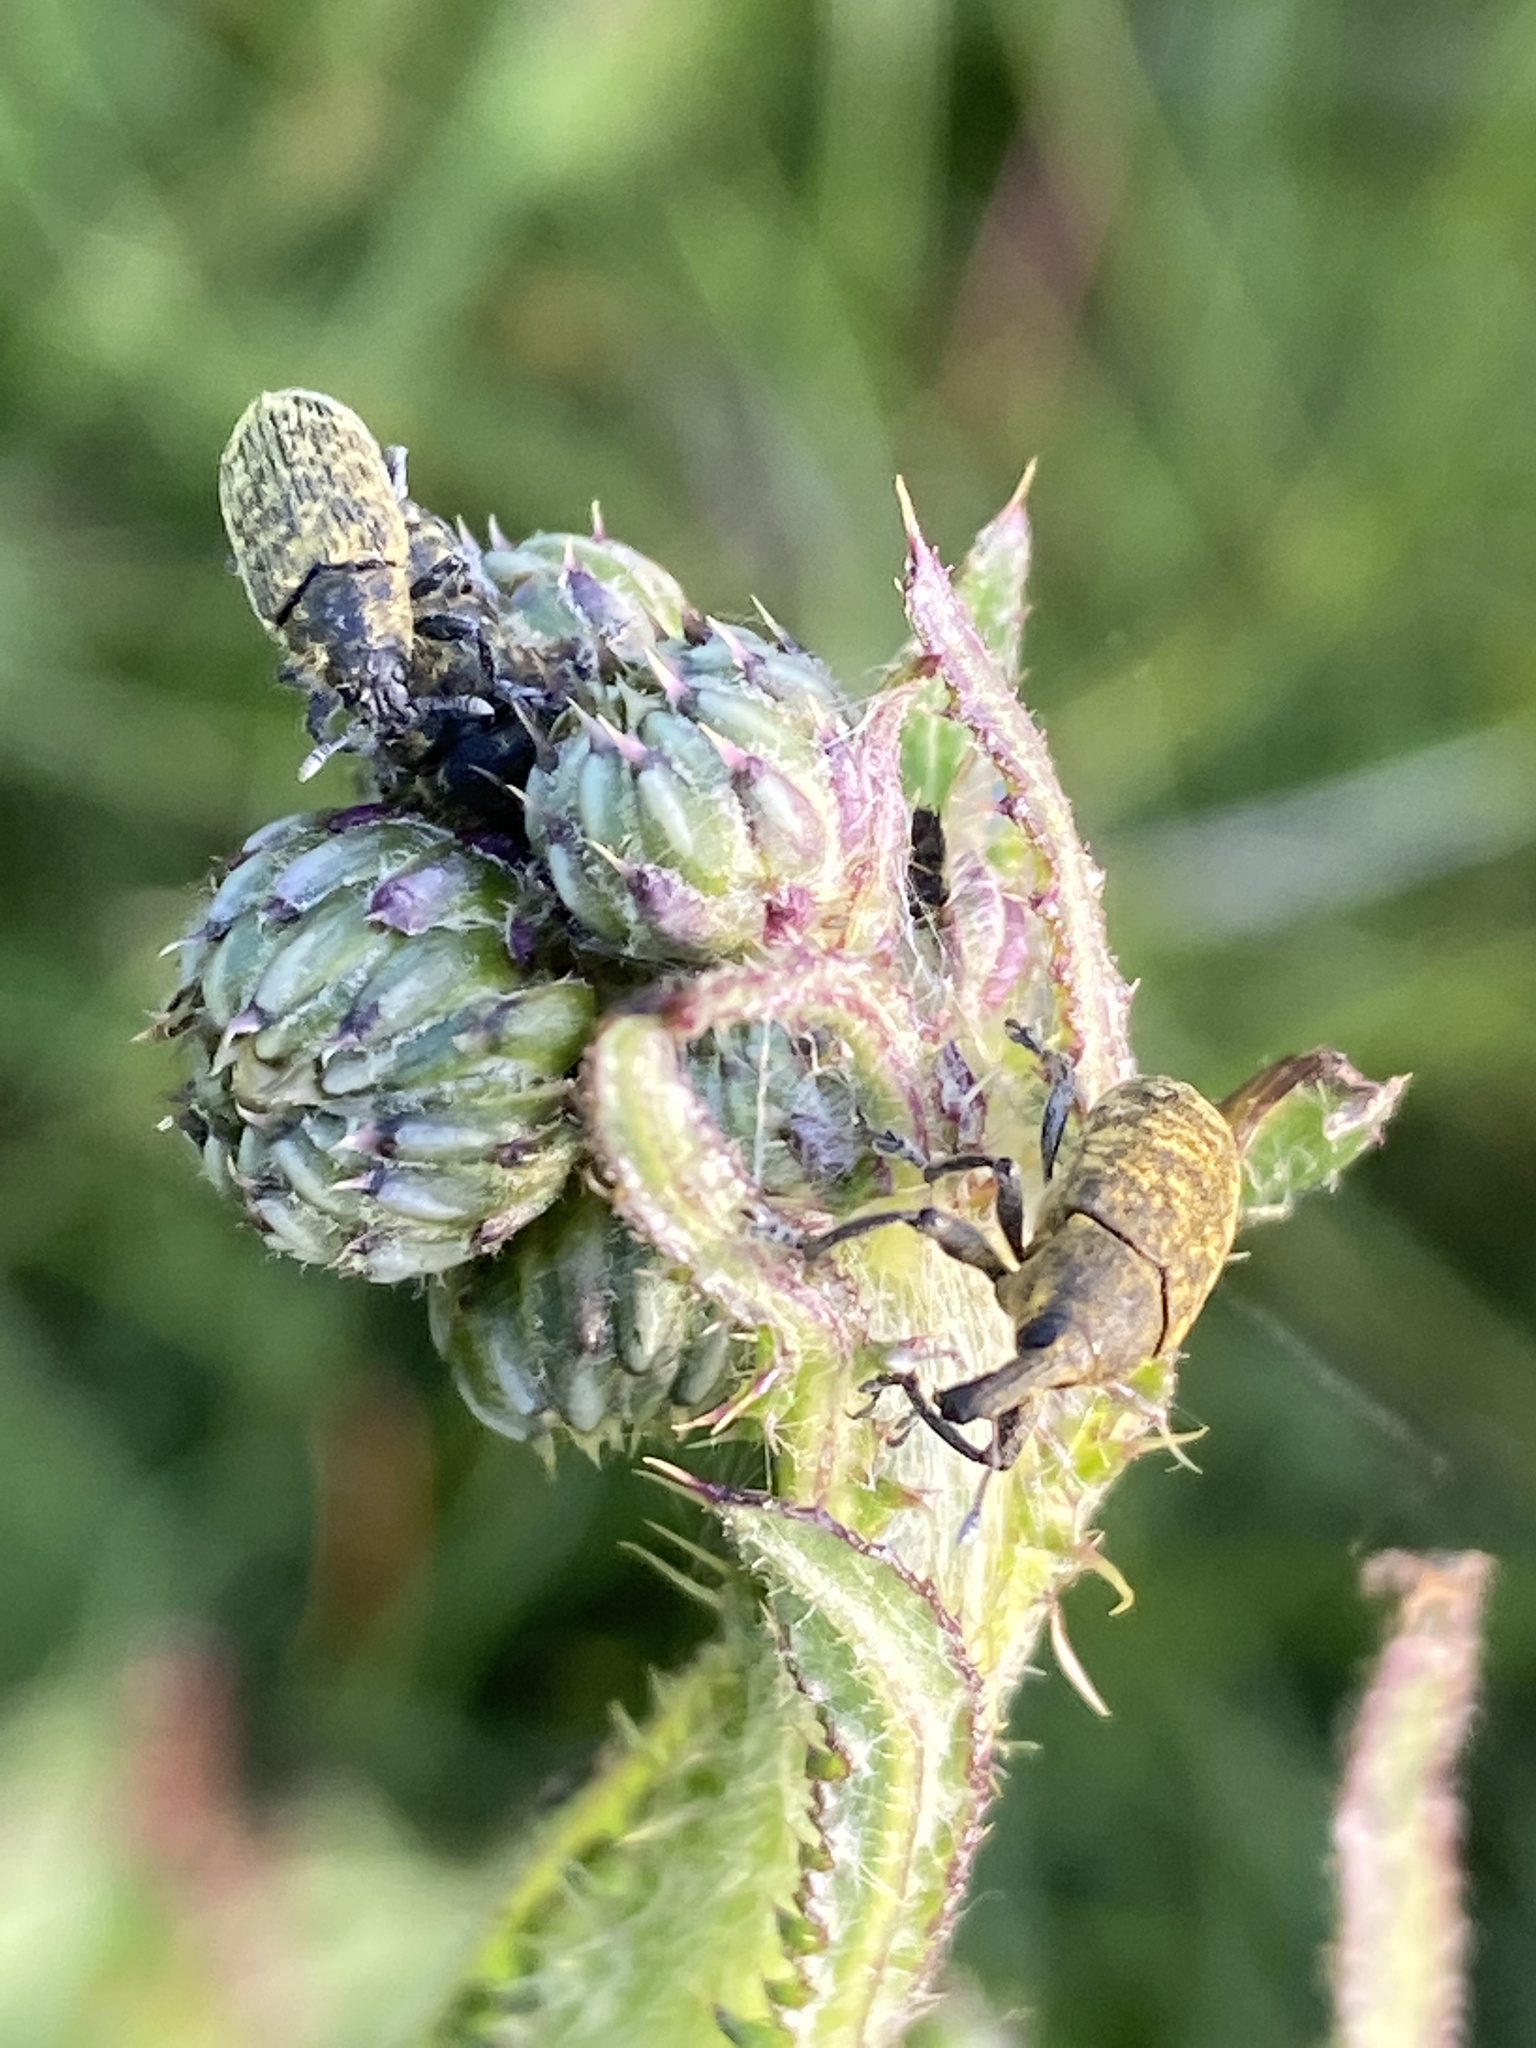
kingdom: Animalia
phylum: Arthropoda
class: Insecta
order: Coleoptera
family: Curculionidae
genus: Larinus
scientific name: Larinus carlinae
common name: Weevil
